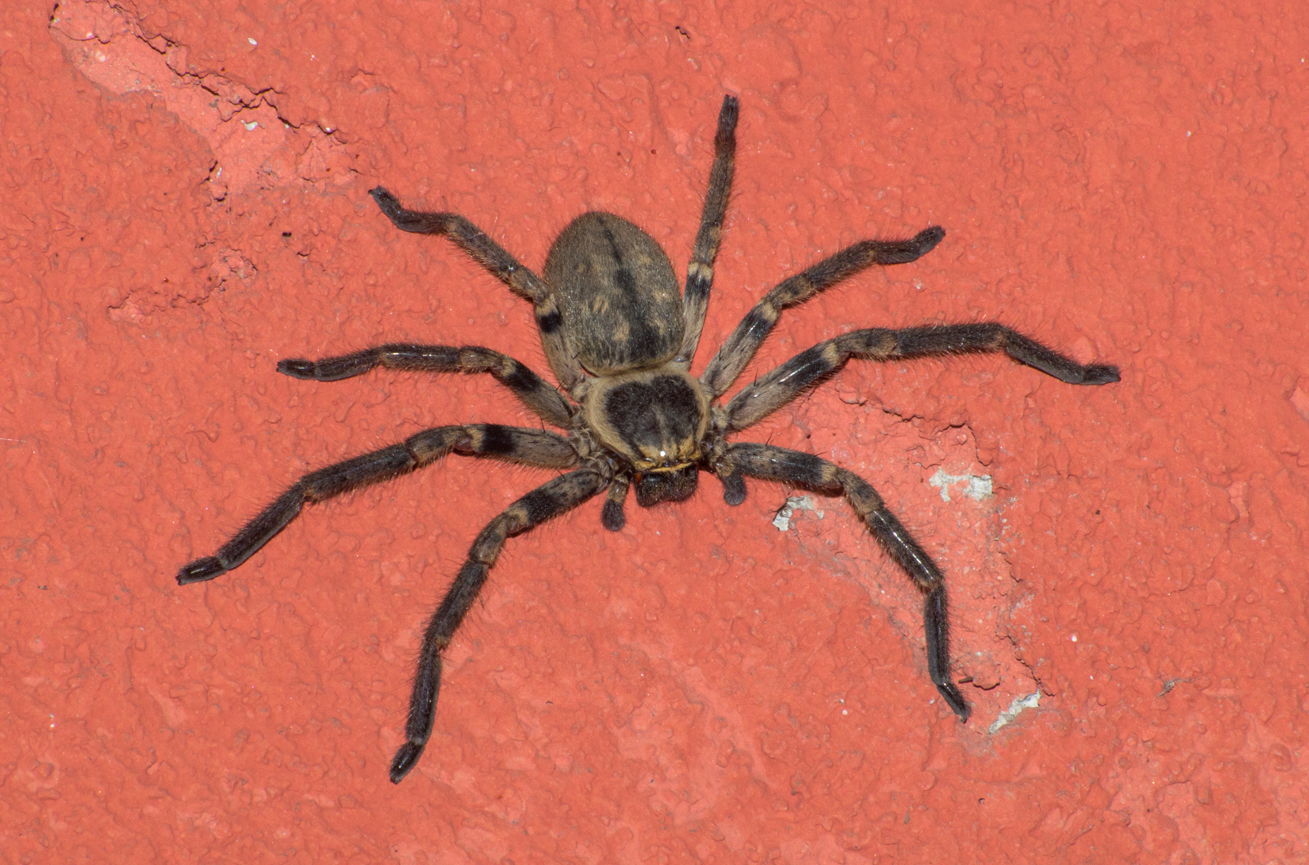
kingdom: Animalia
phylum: Arthropoda
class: Arachnida
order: Araneae
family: Sparassidae
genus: Polybetes
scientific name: Polybetes pythagoricus
